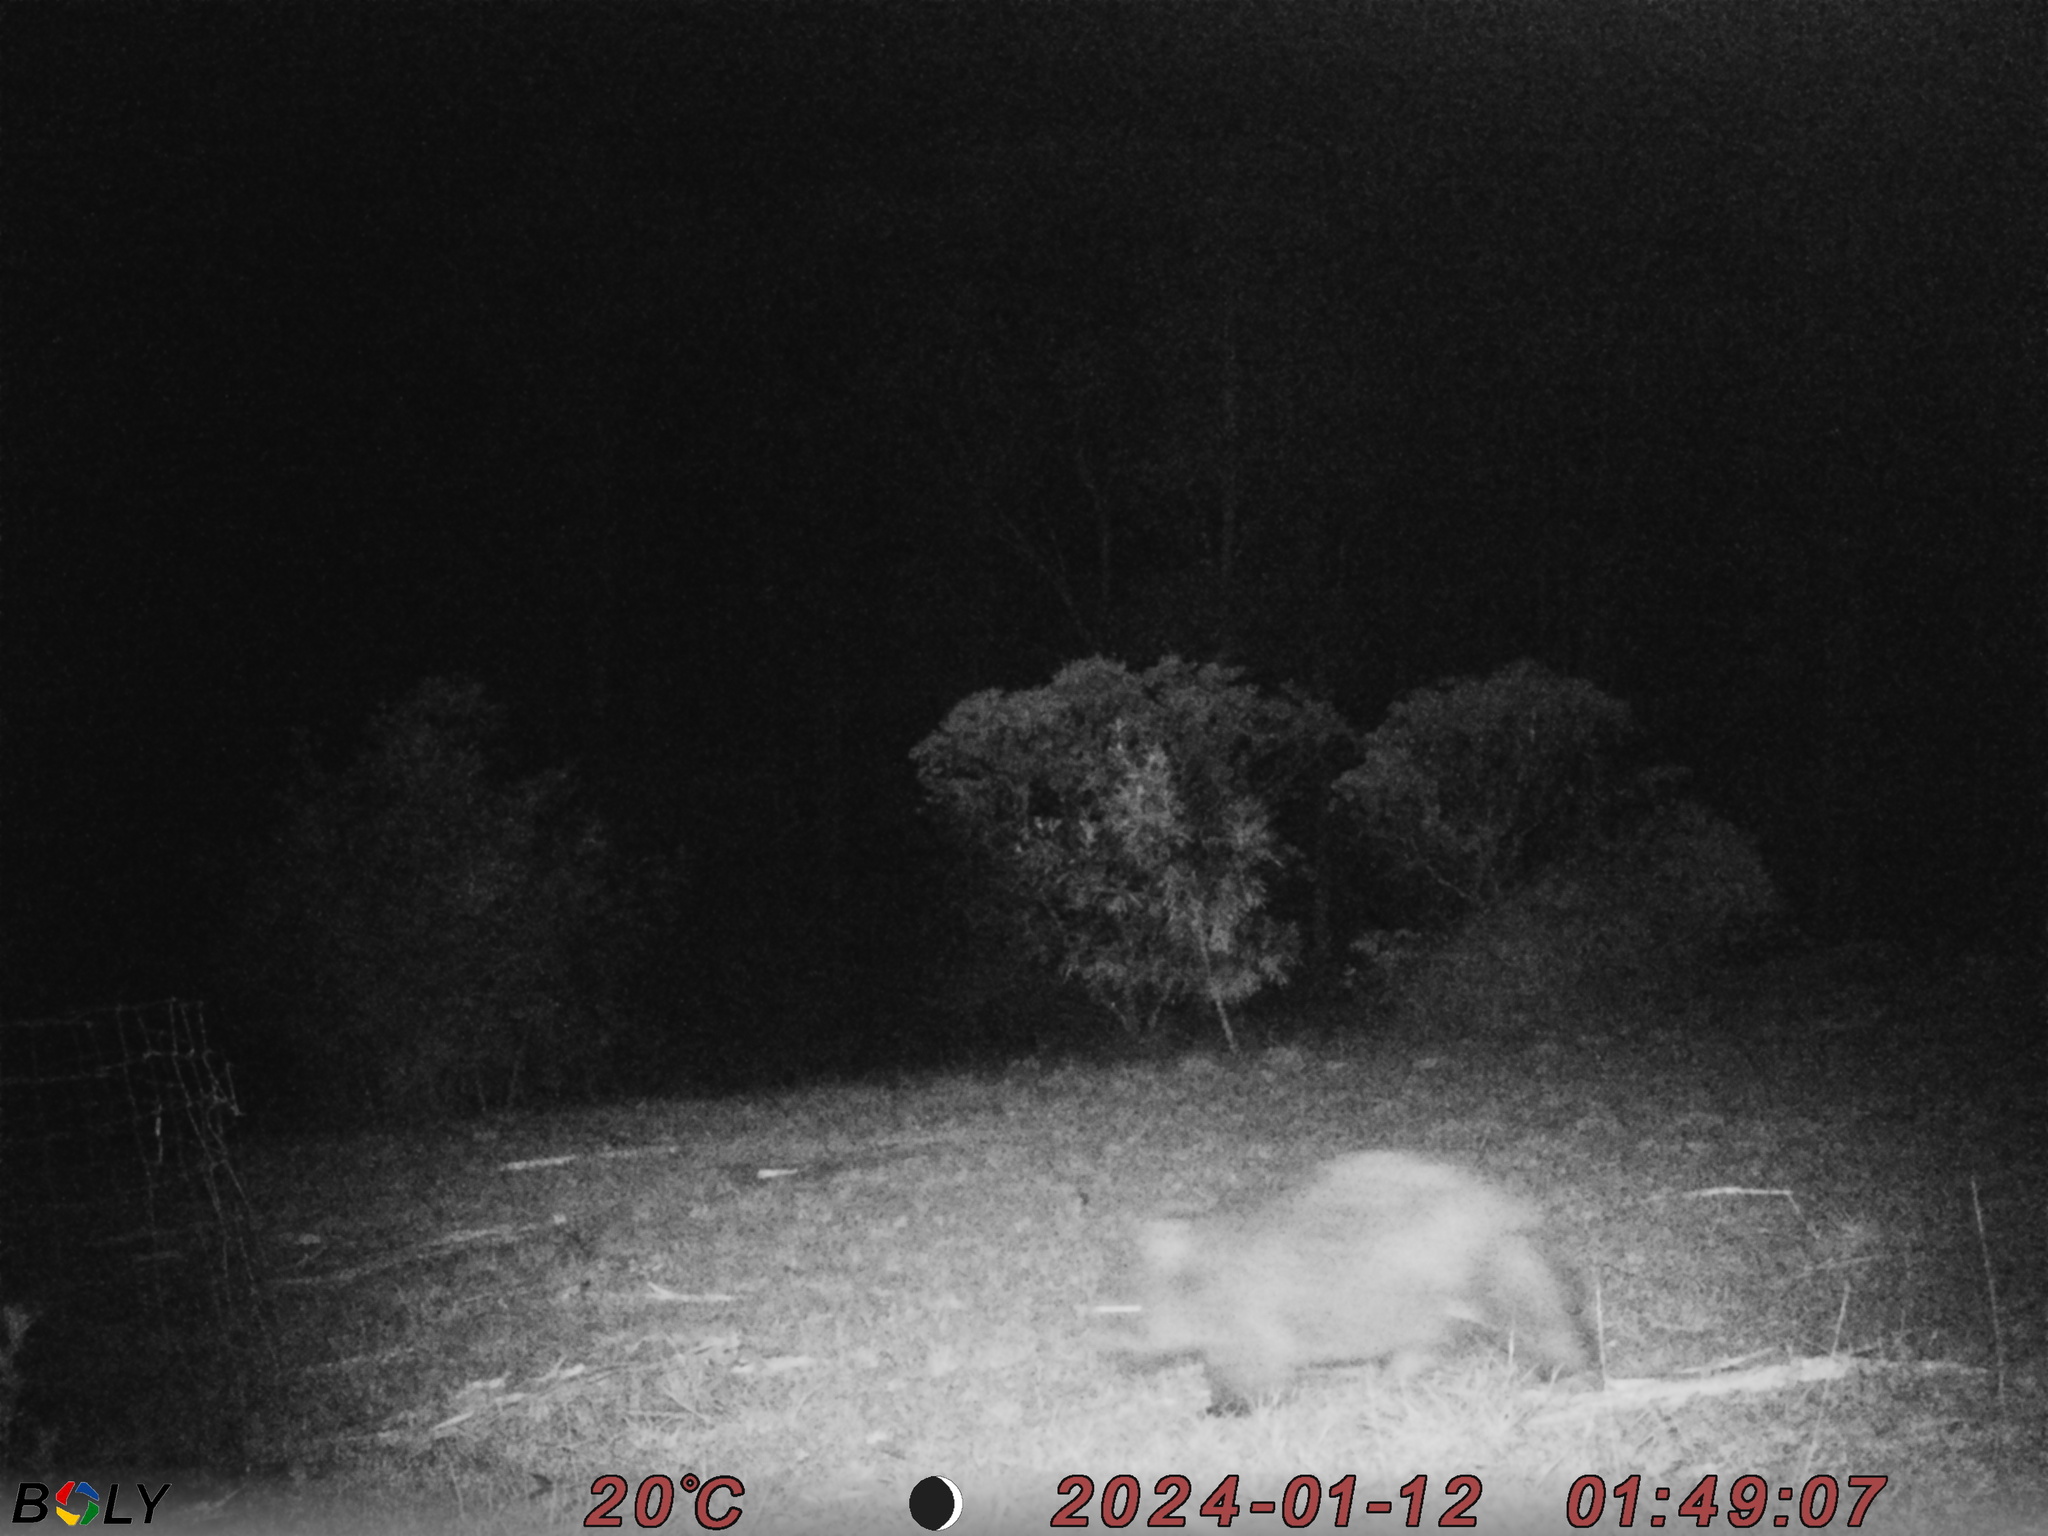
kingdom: Animalia
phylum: Chordata
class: Mammalia
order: Diprotodontia
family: Vombatidae
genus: Vombatus
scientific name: Vombatus ursinus
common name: Common wombat
